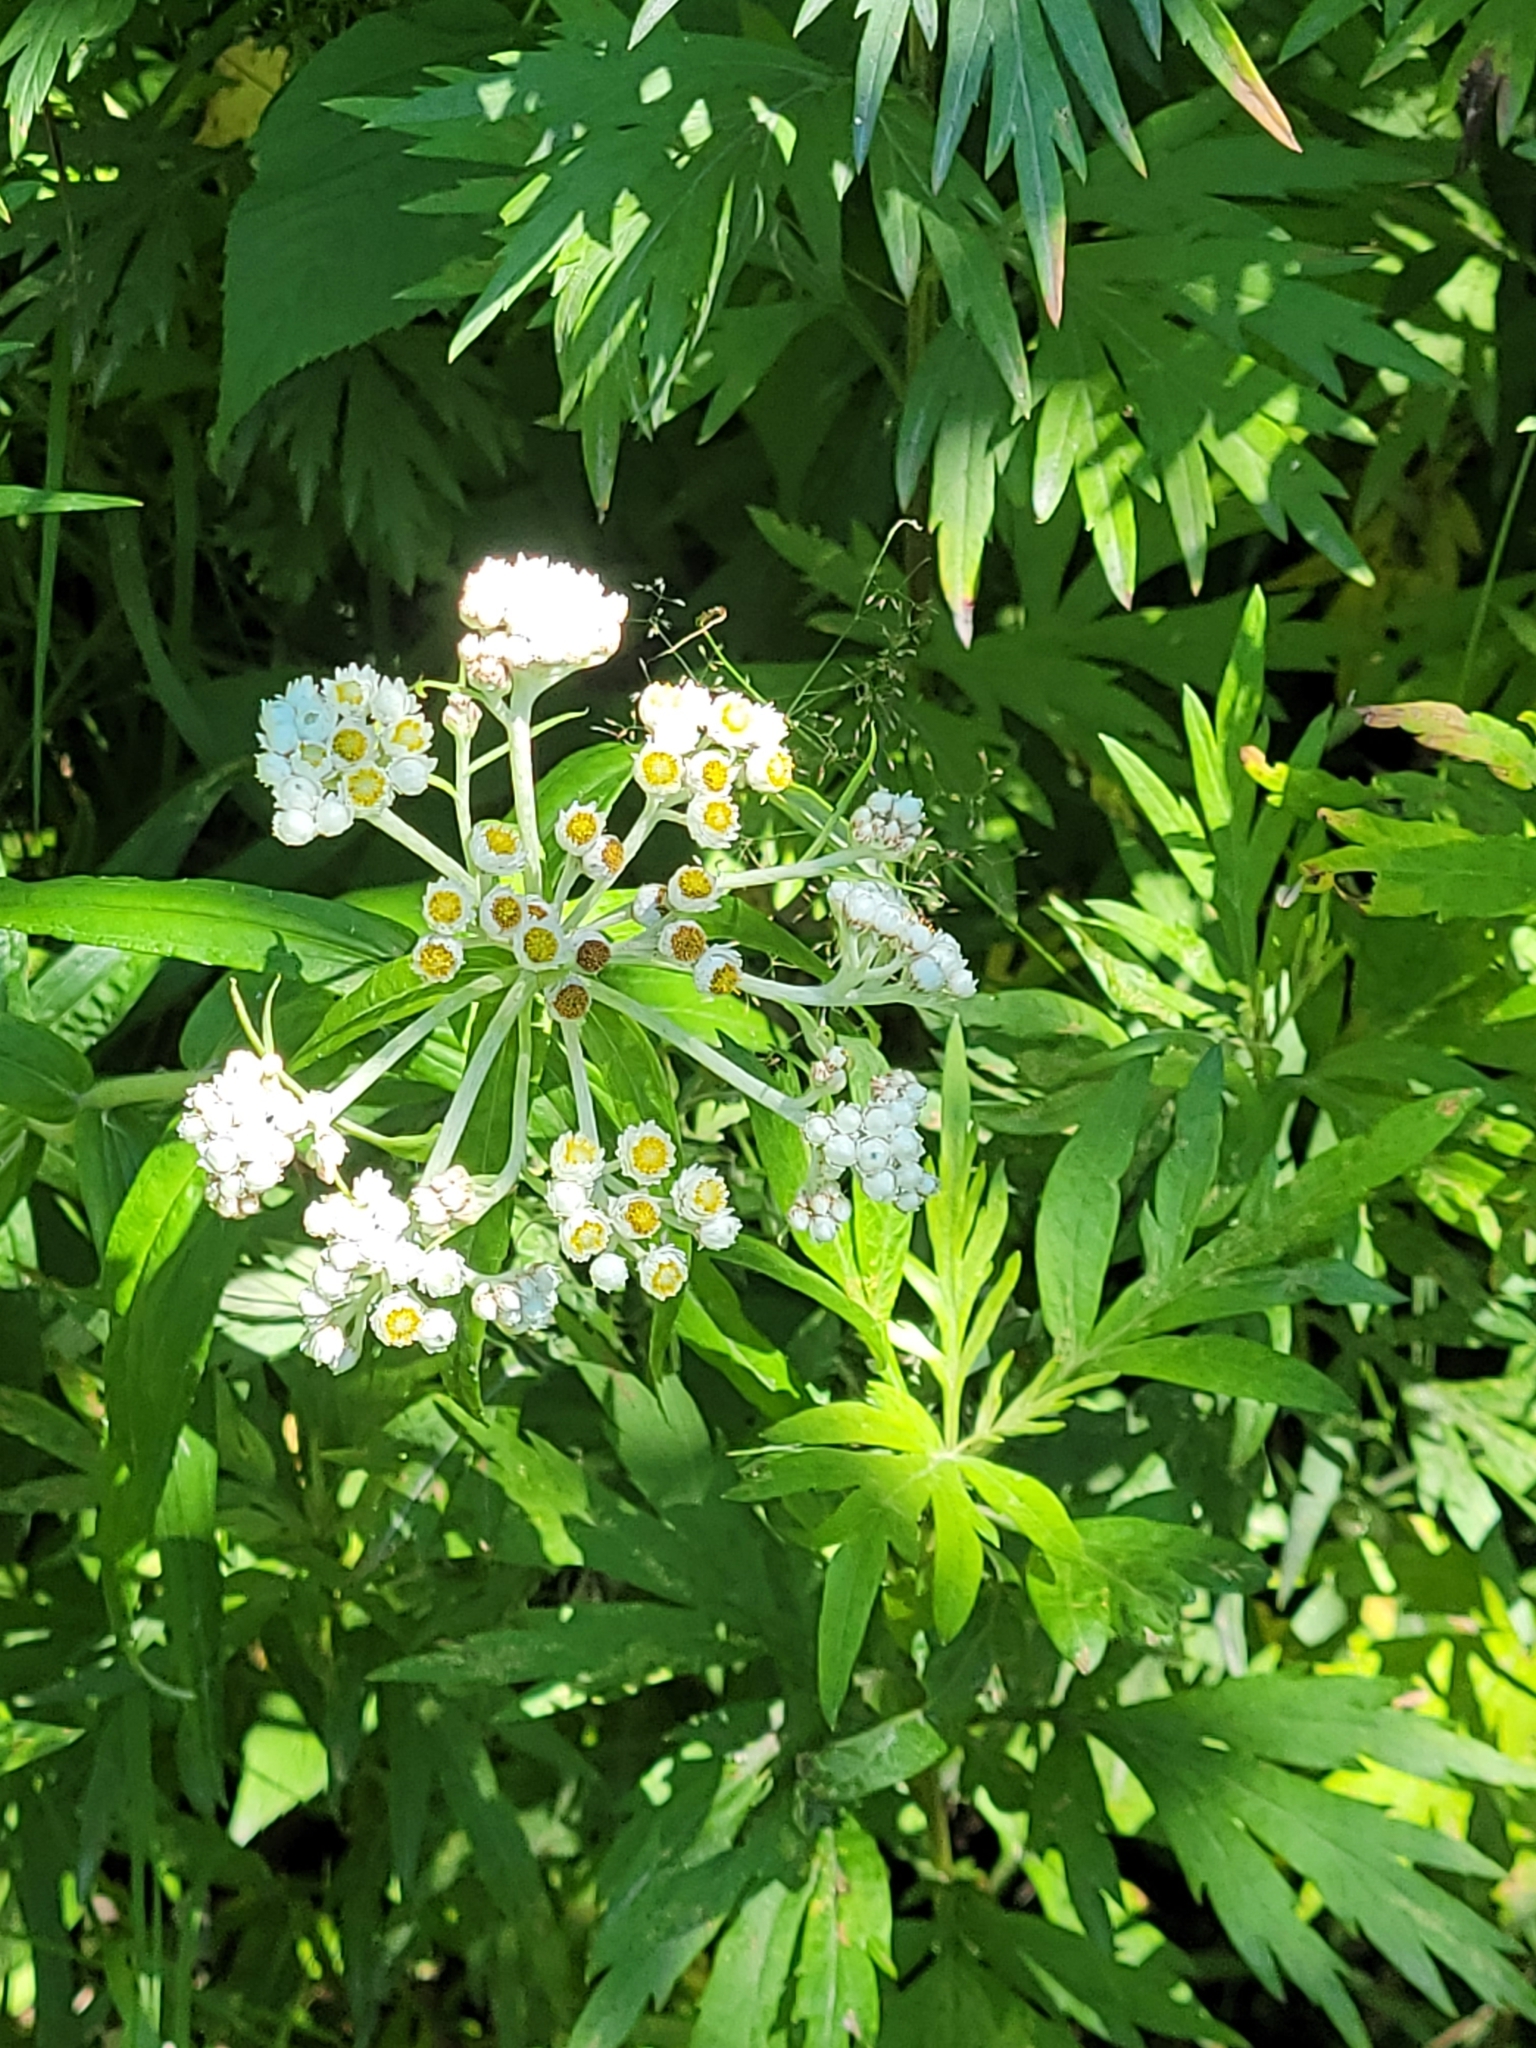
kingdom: Plantae
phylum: Tracheophyta
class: Magnoliopsida
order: Asterales
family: Asteraceae
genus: Anaphalis
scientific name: Anaphalis margaritacea
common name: Pearly everlasting
